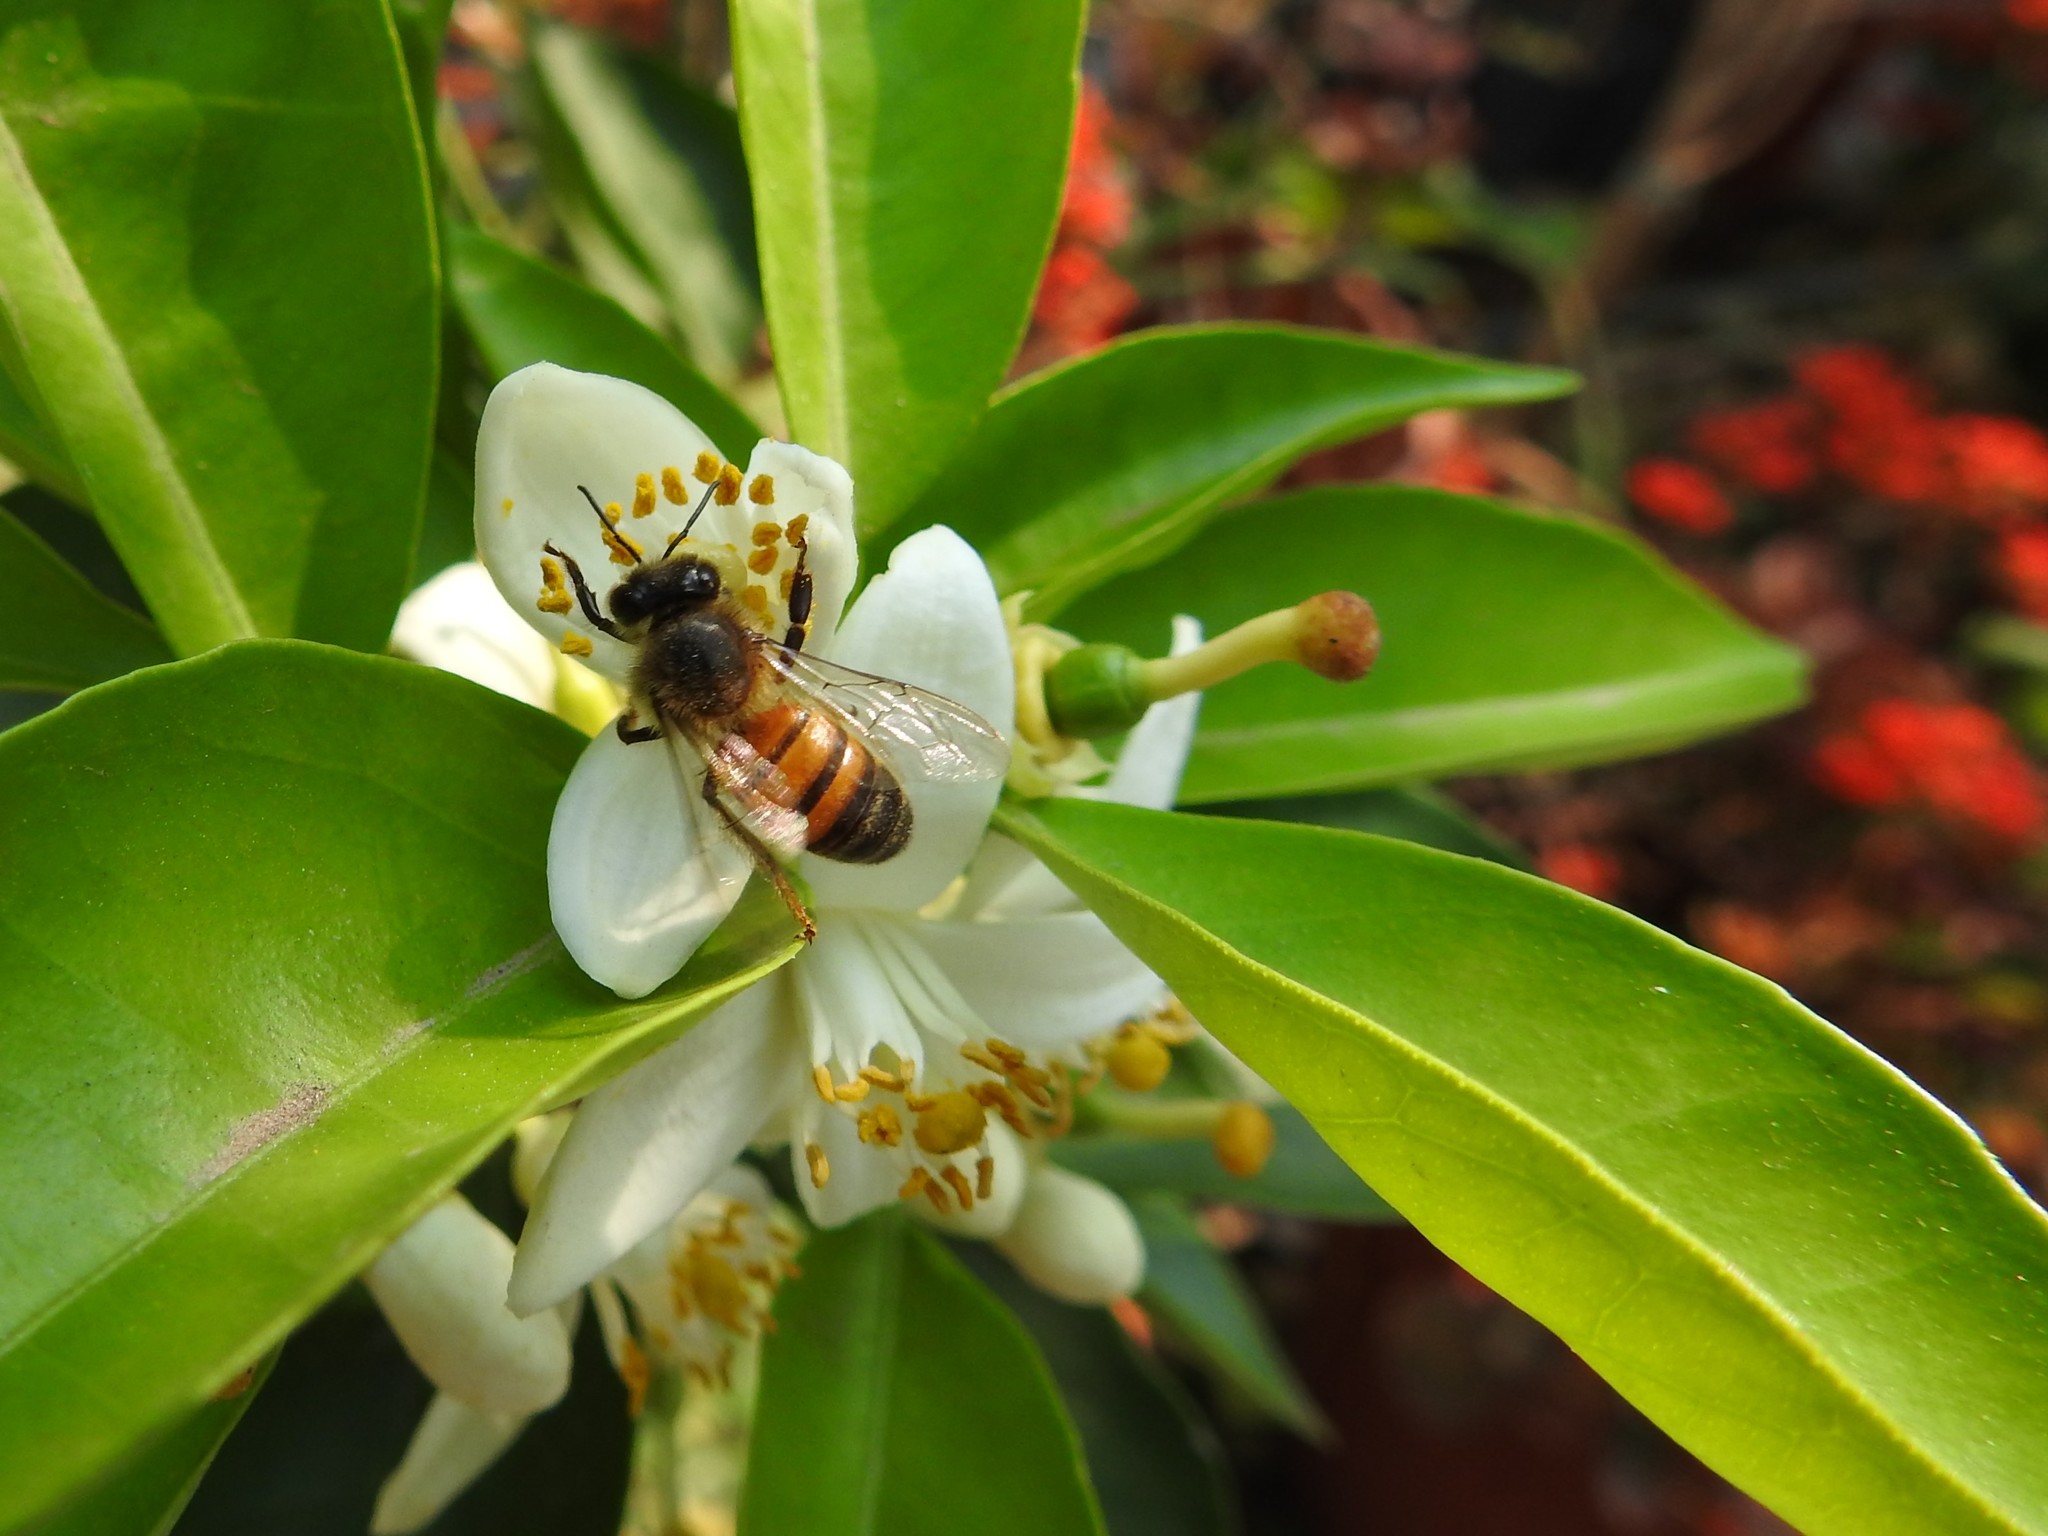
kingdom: Animalia
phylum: Arthropoda
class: Insecta
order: Hymenoptera
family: Apidae
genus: Apis
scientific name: Apis mellifera
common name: Honey bee
